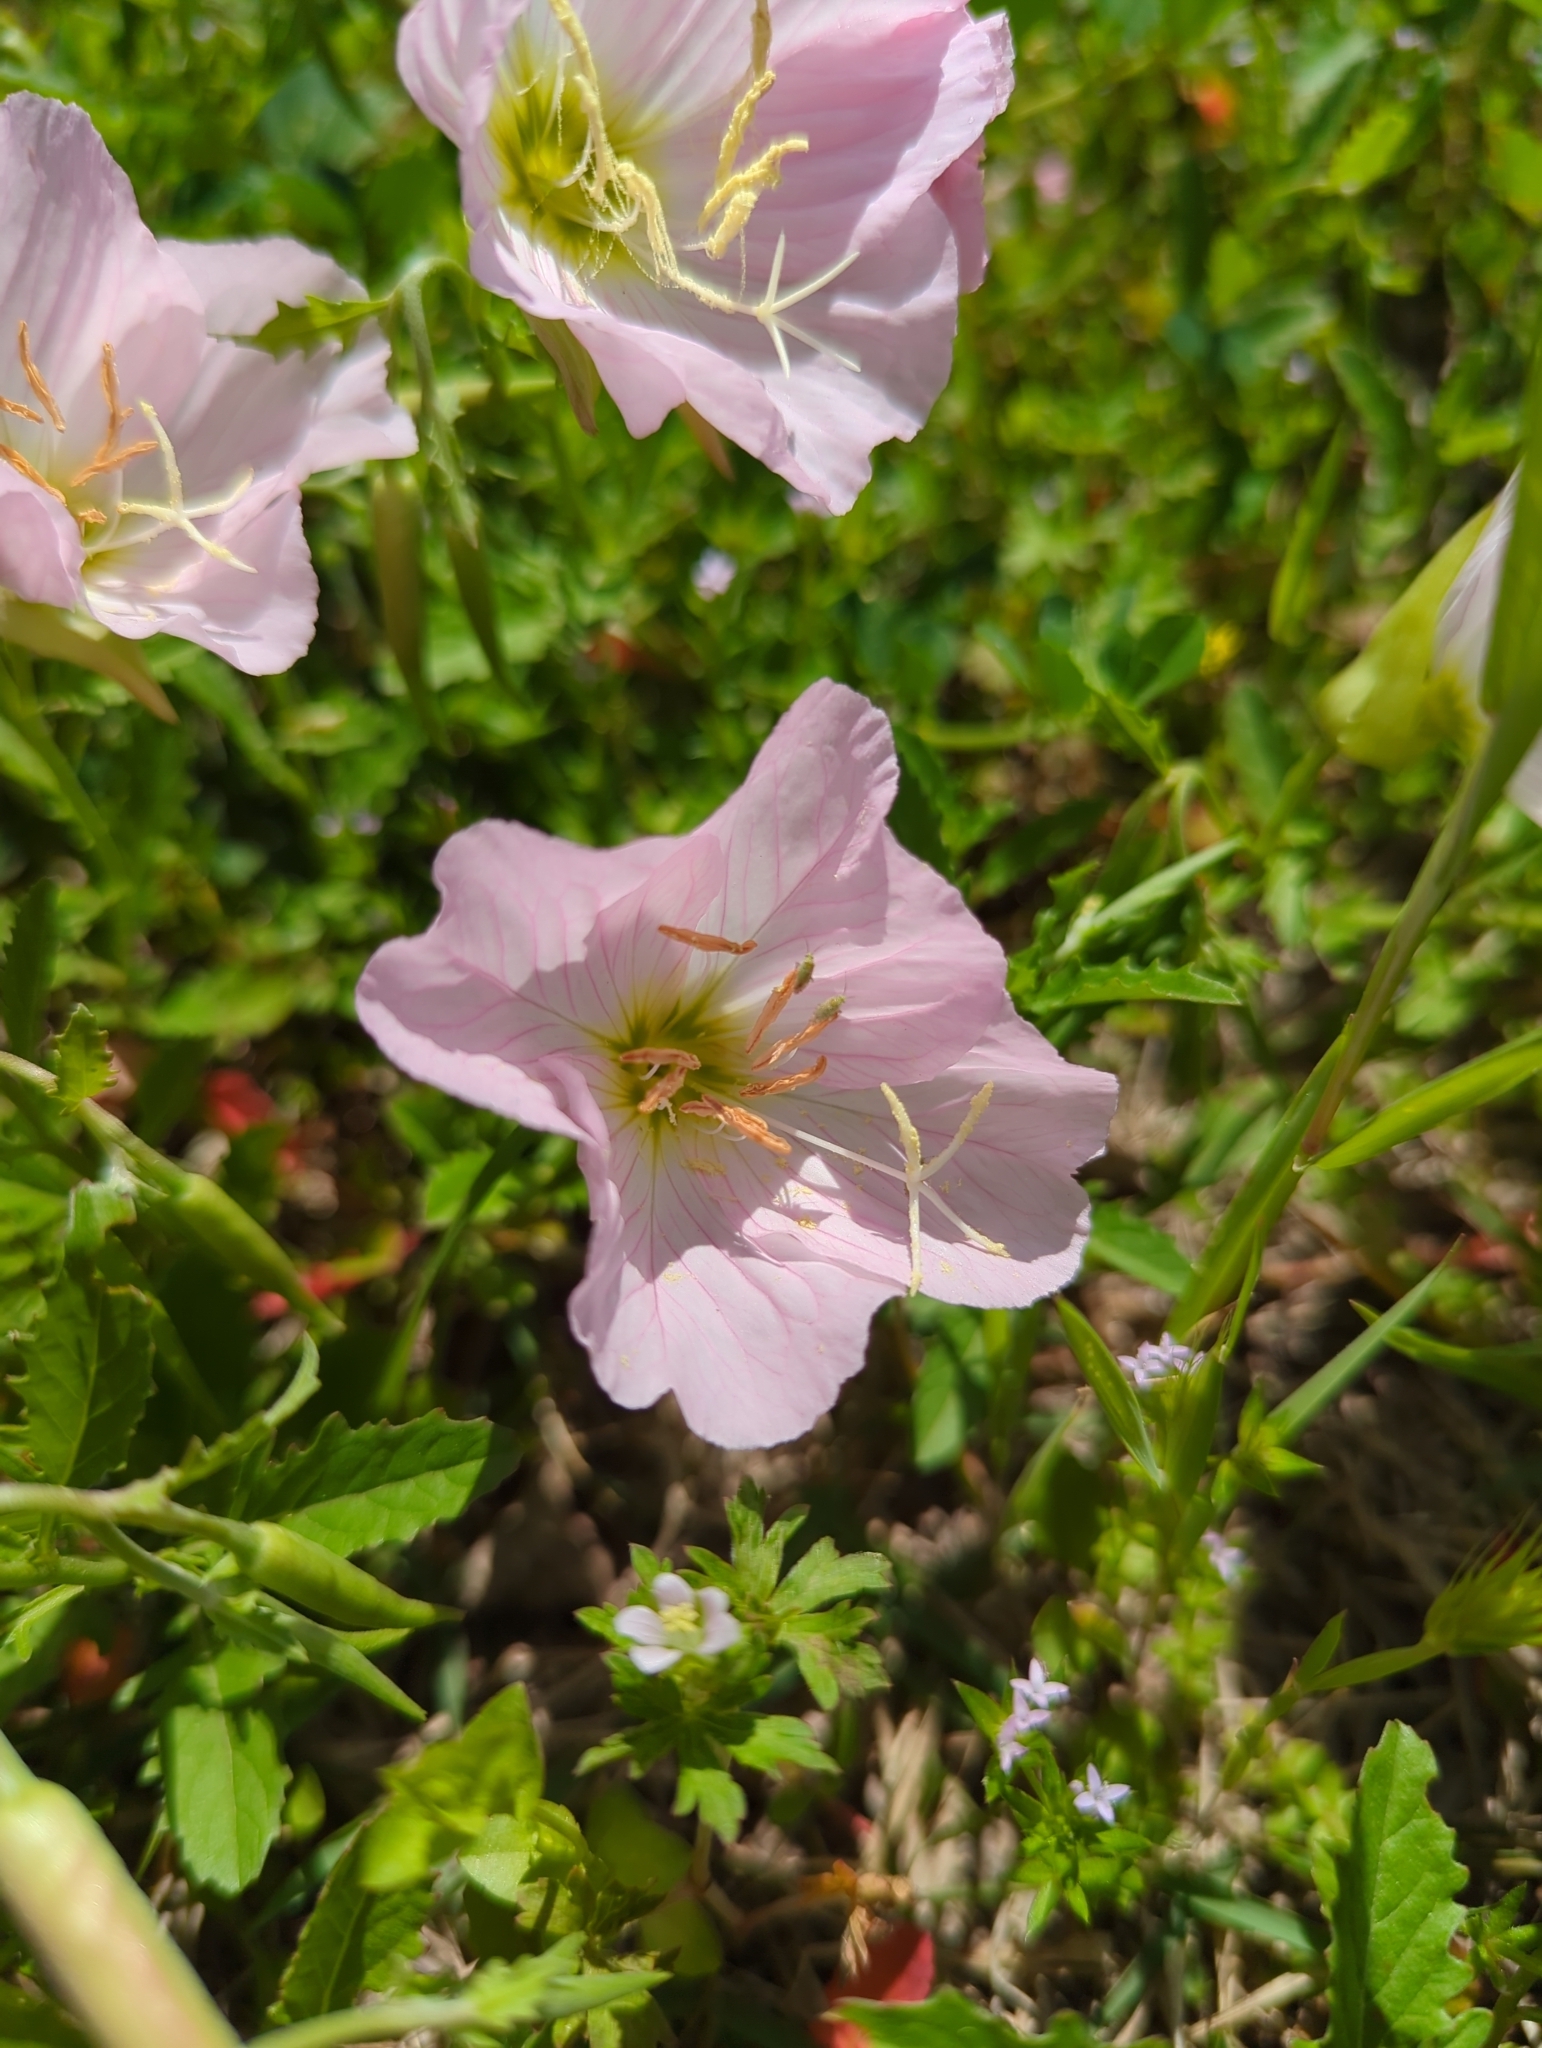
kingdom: Plantae
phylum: Tracheophyta
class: Magnoliopsida
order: Myrtales
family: Onagraceae
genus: Oenothera
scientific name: Oenothera speciosa
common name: White evening-primrose
